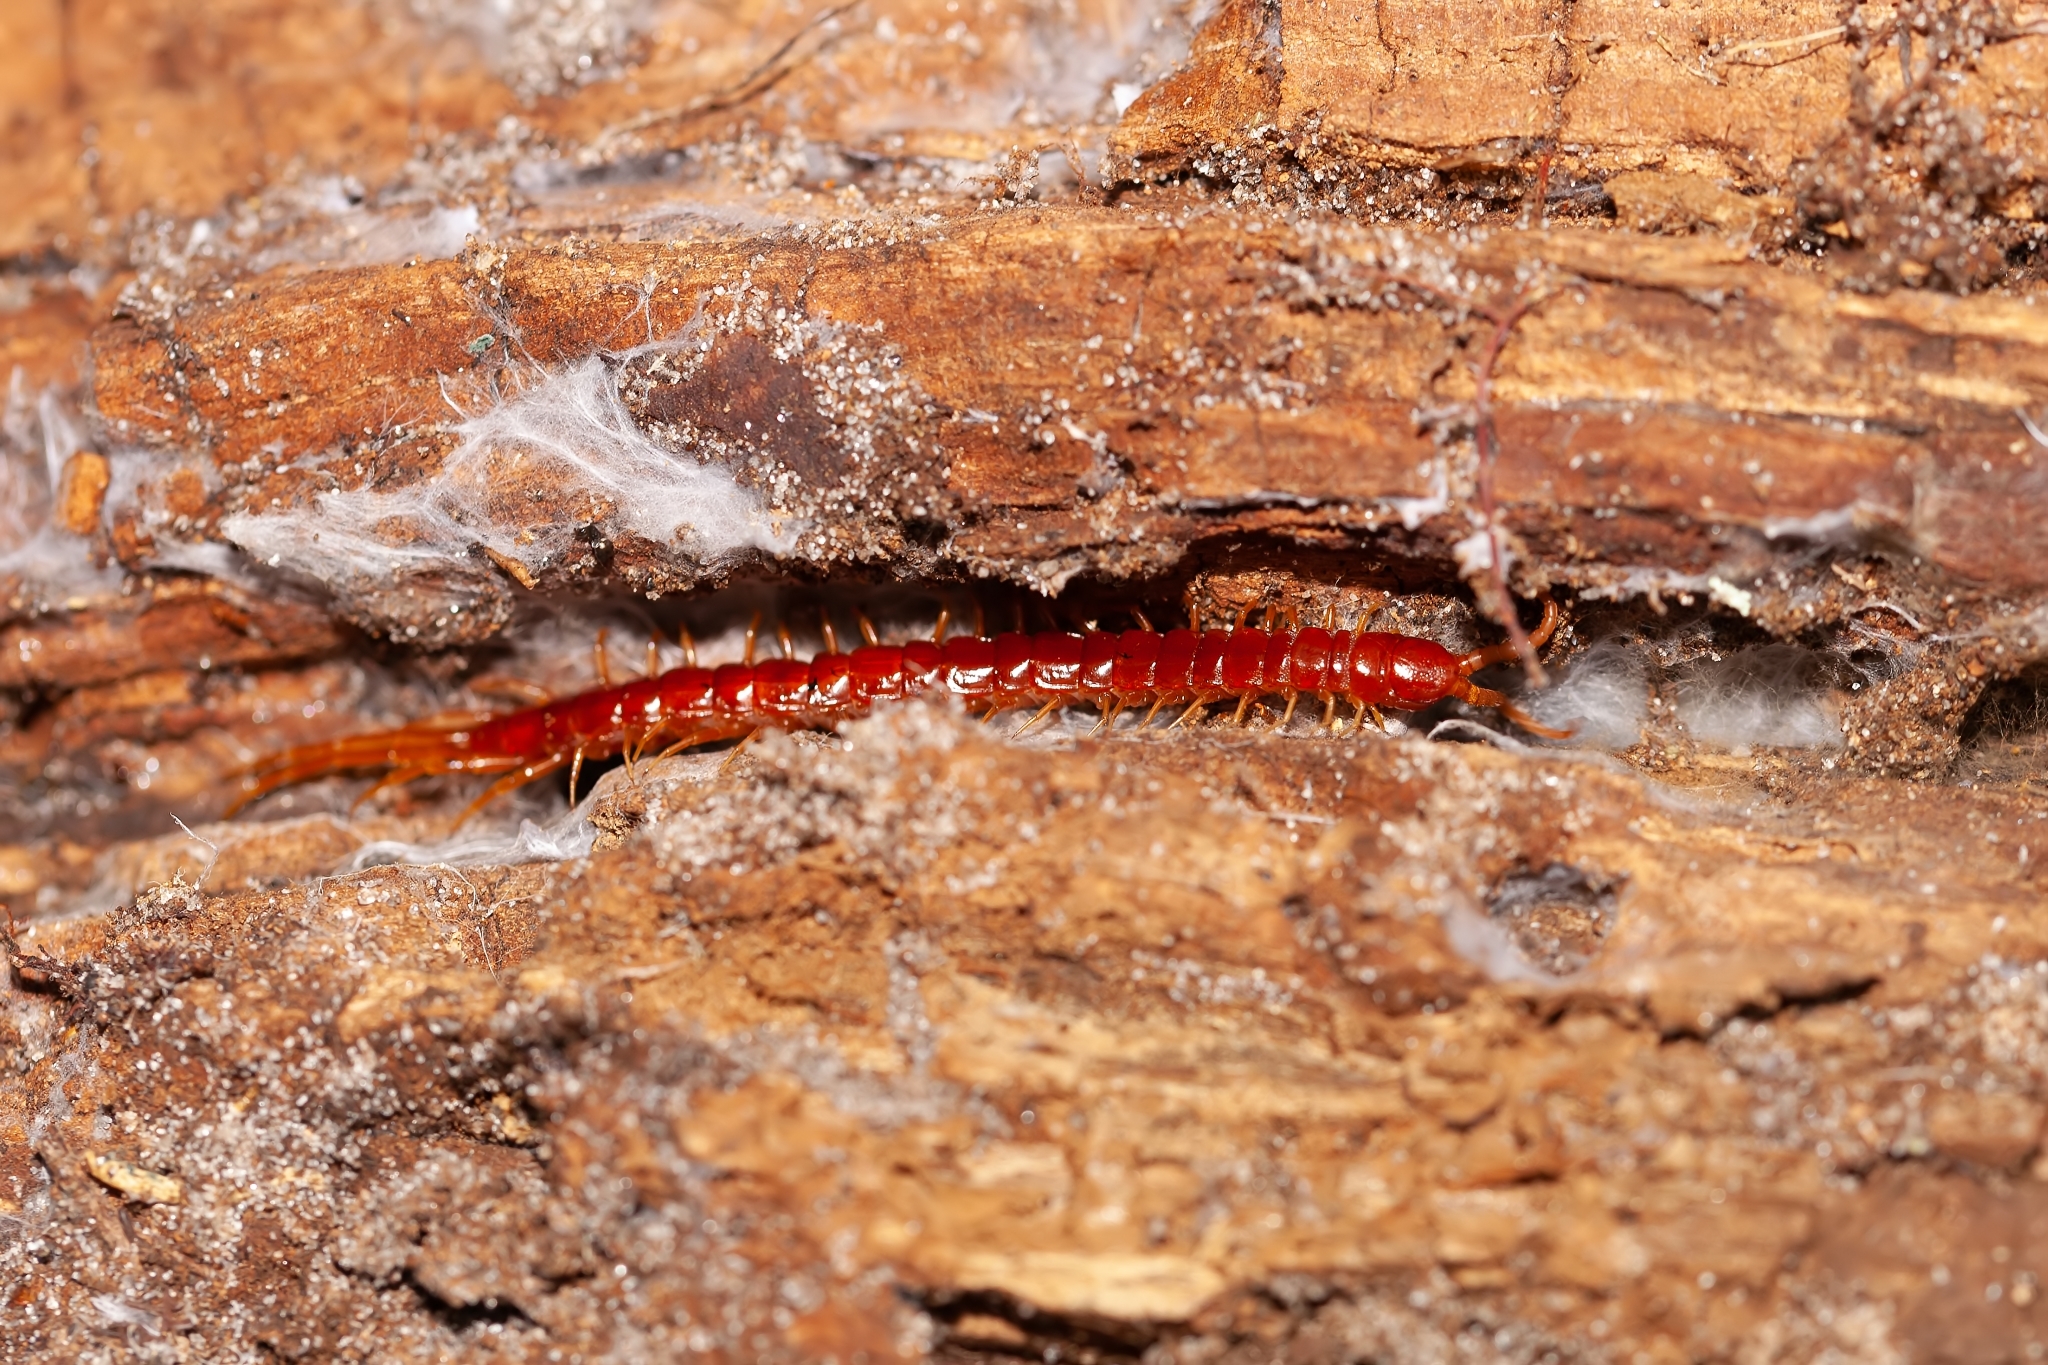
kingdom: Animalia
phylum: Arthropoda
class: Chilopoda
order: Scolopendromorpha
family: Scolopocryptopidae
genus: Scolopocryptops
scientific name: Scolopocryptops sexspinosus
